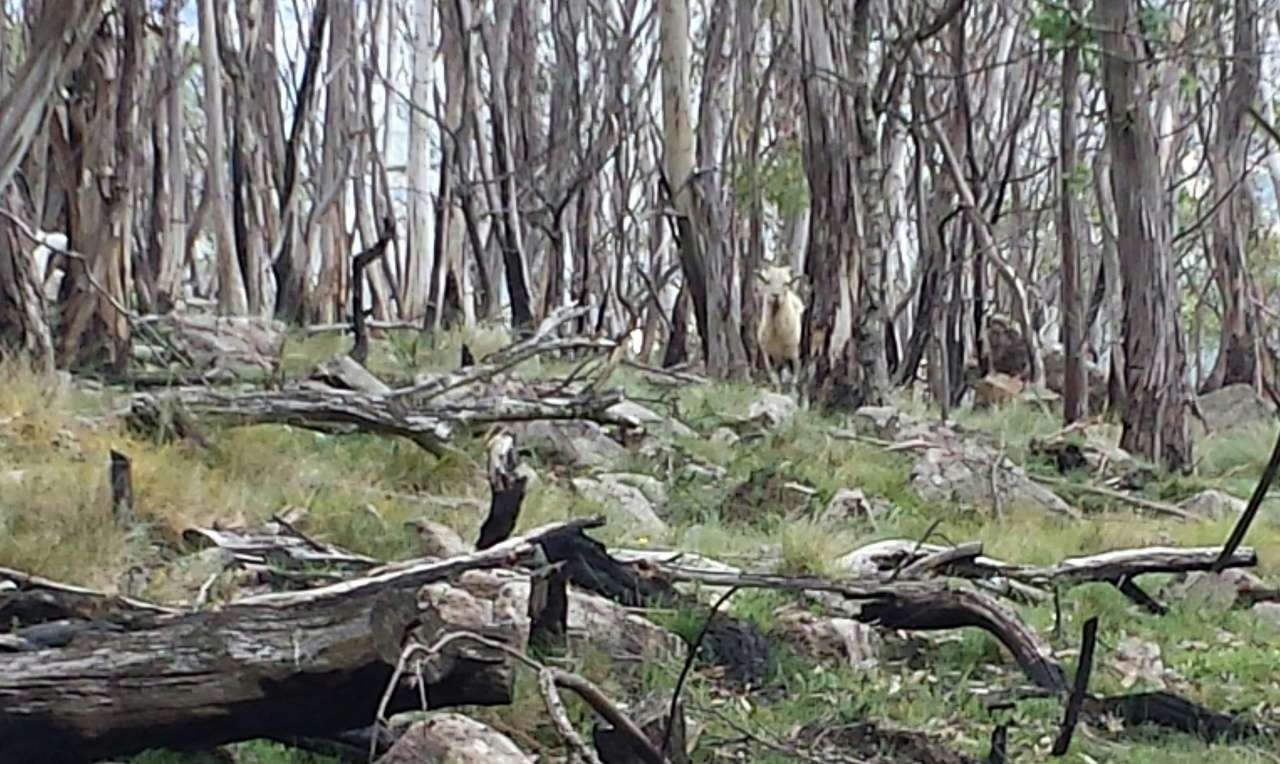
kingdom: Animalia
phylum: Chordata
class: Mammalia
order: Artiodactyla
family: Bovidae
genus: Capra
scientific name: Capra hircus
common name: Domestic goat
